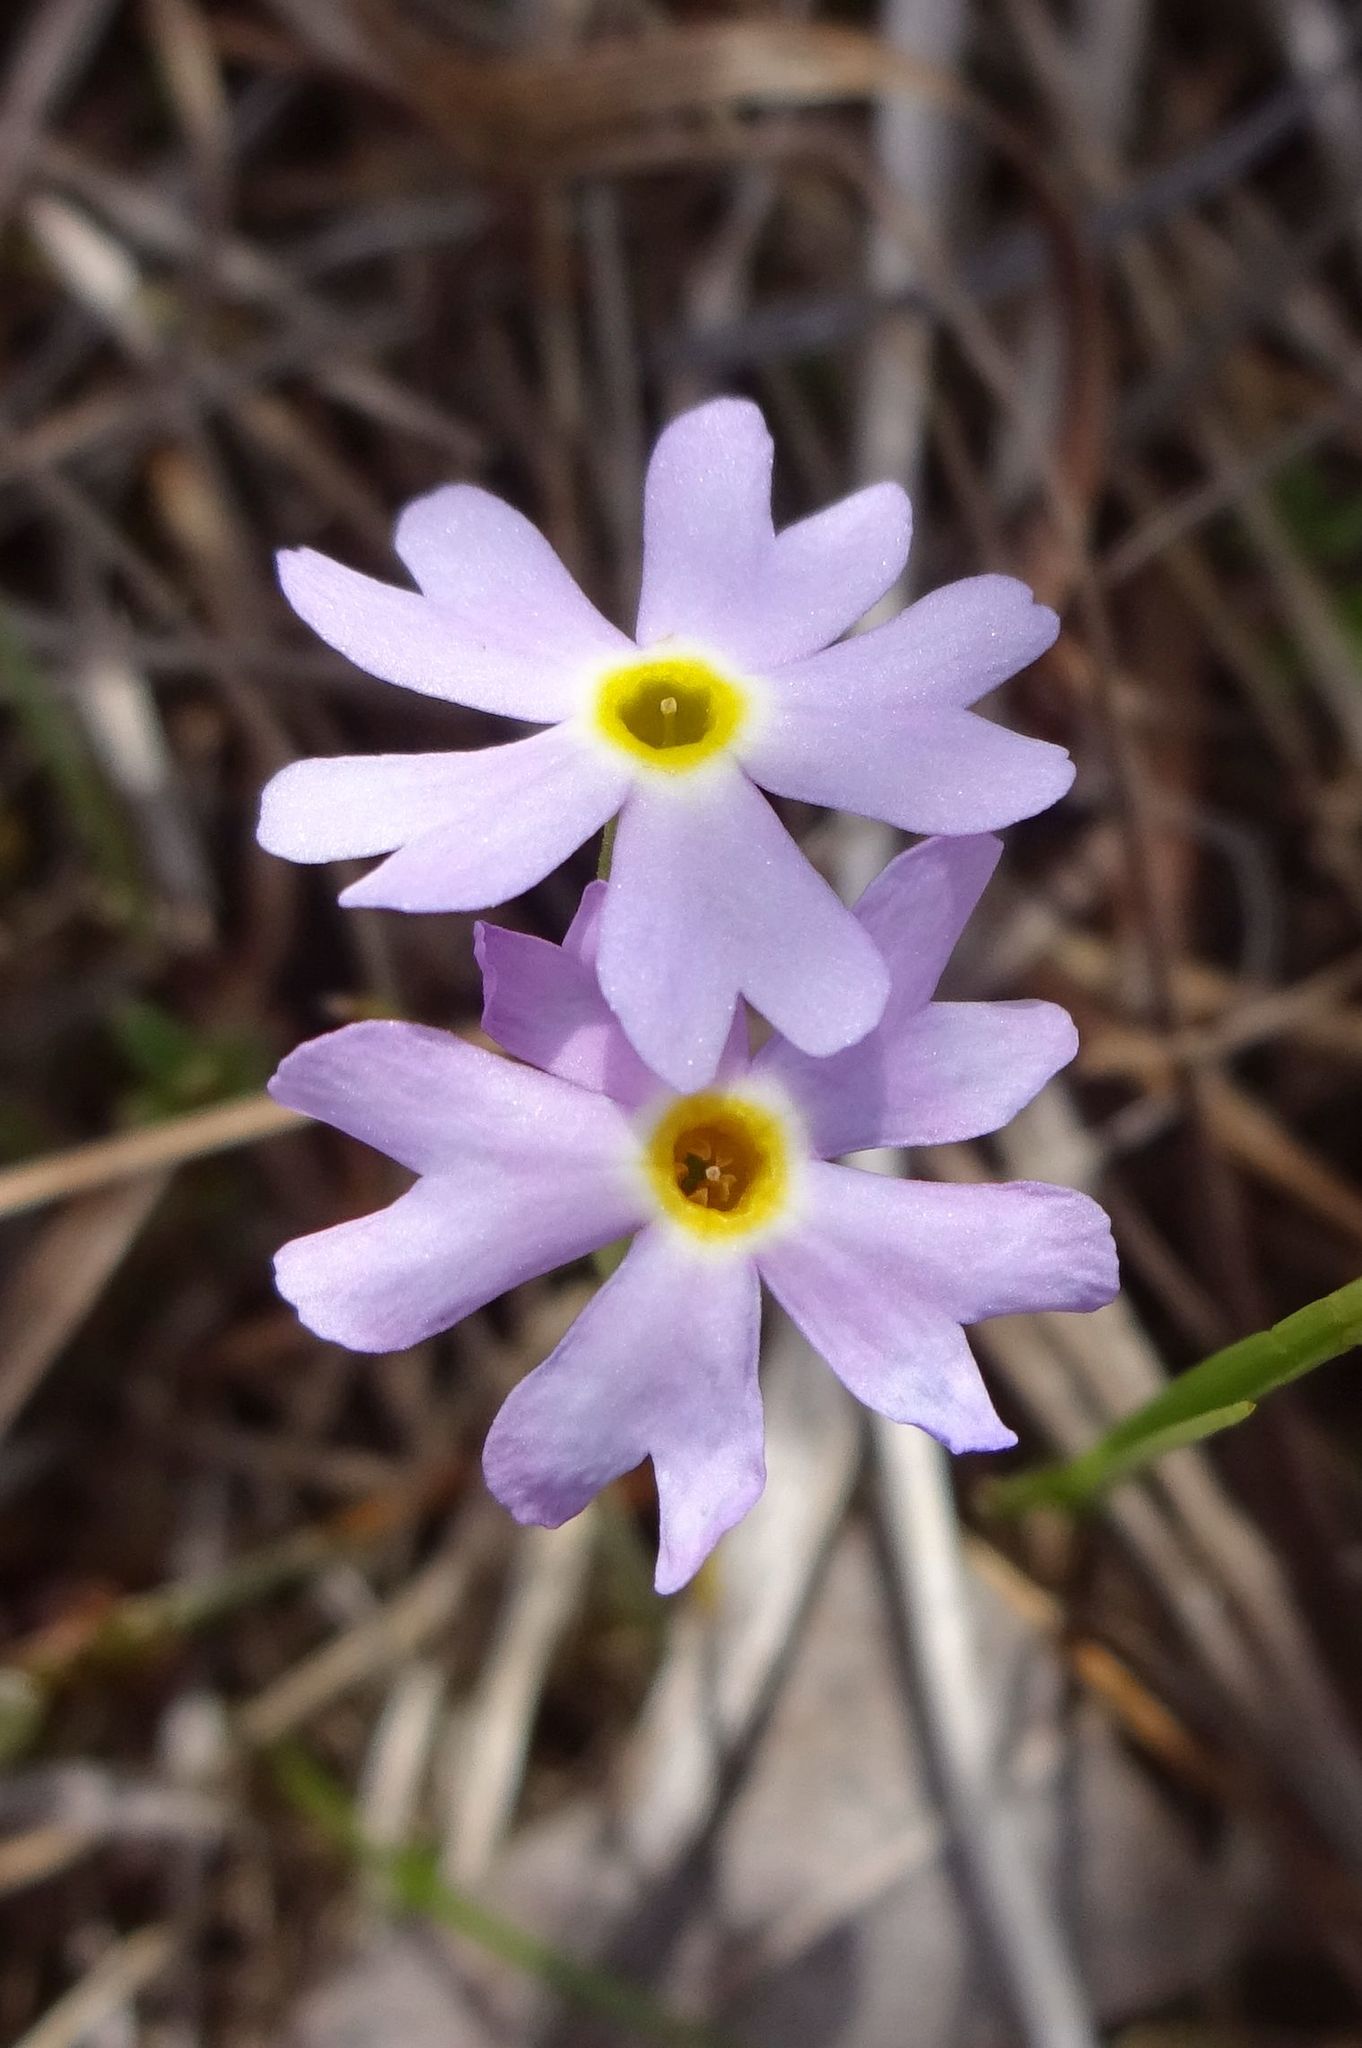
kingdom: Plantae
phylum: Tracheophyta
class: Magnoliopsida
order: Ericales
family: Primulaceae
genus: Primula
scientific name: Primula mistassinica
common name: Bird's-eye primrose
